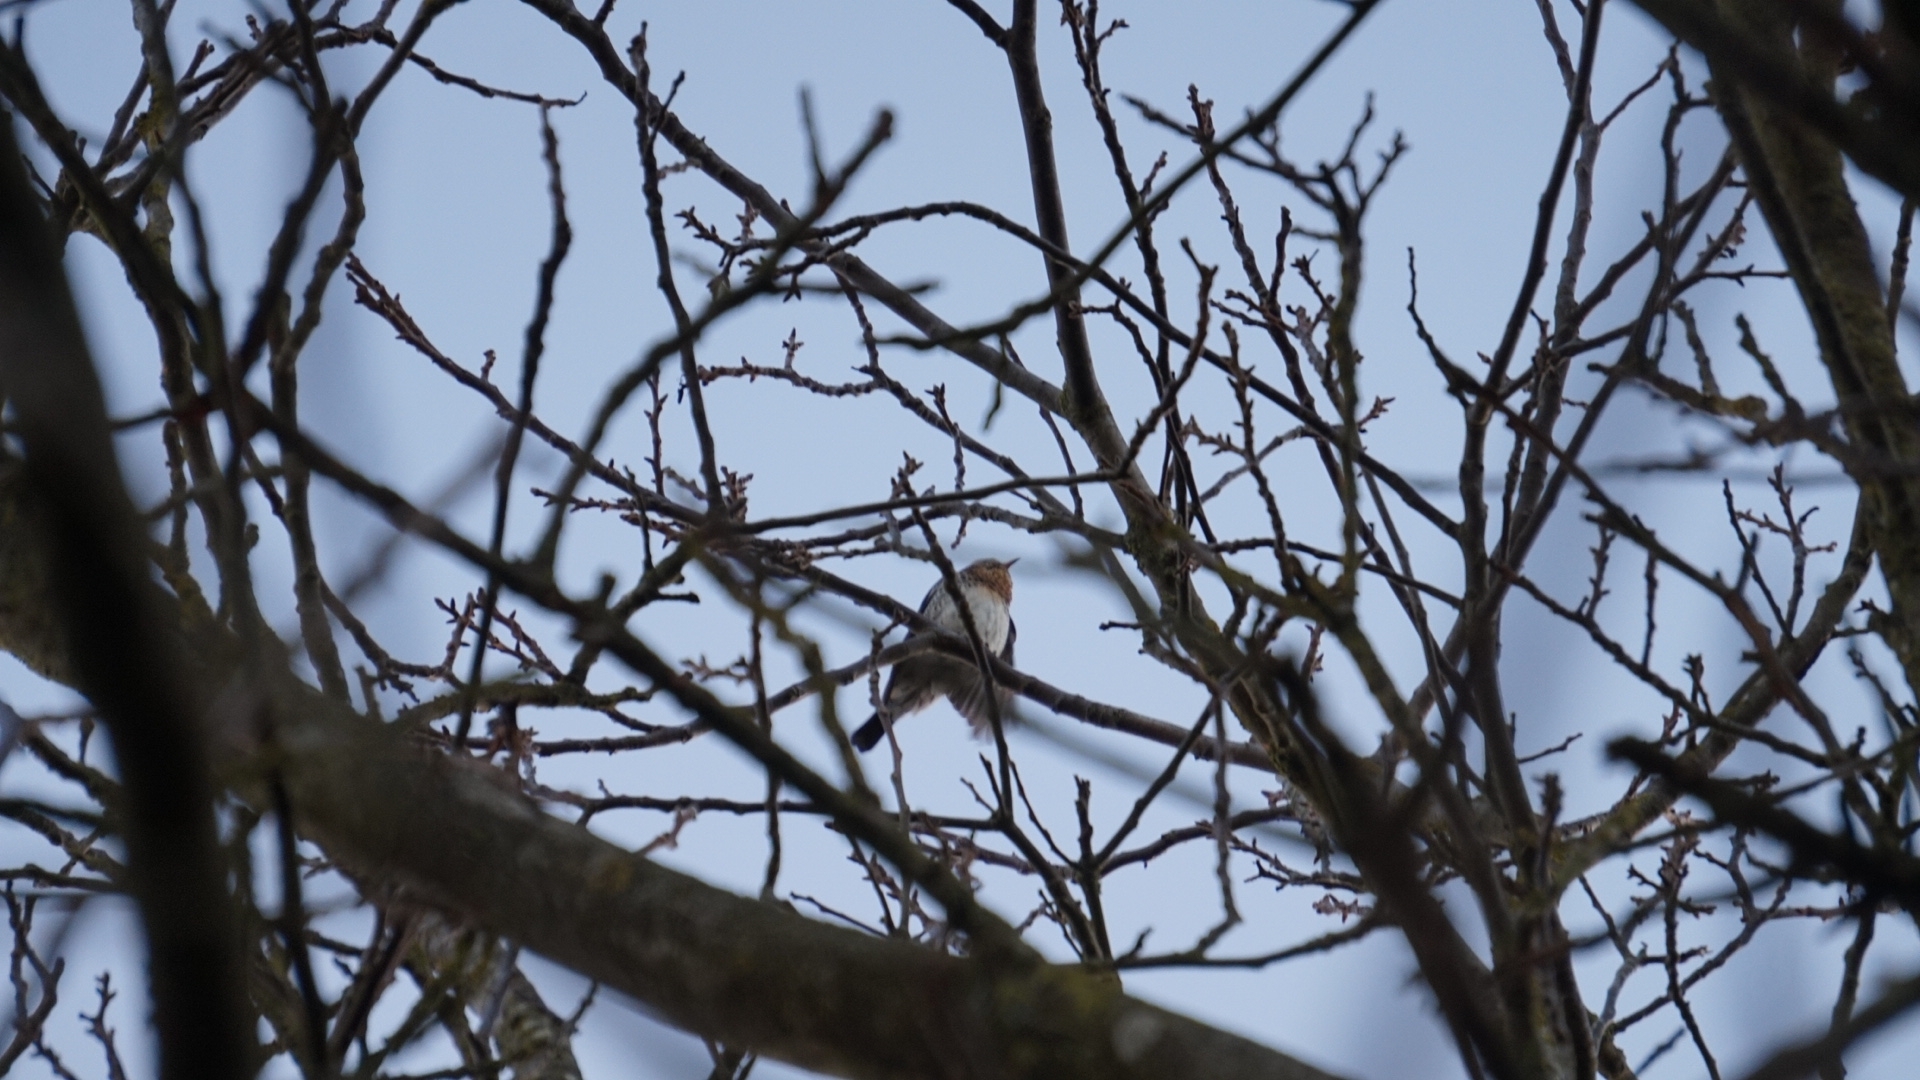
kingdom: Animalia
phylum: Chordata
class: Aves
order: Passeriformes
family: Turdidae
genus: Turdus
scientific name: Turdus pilaris
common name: Fieldfare
